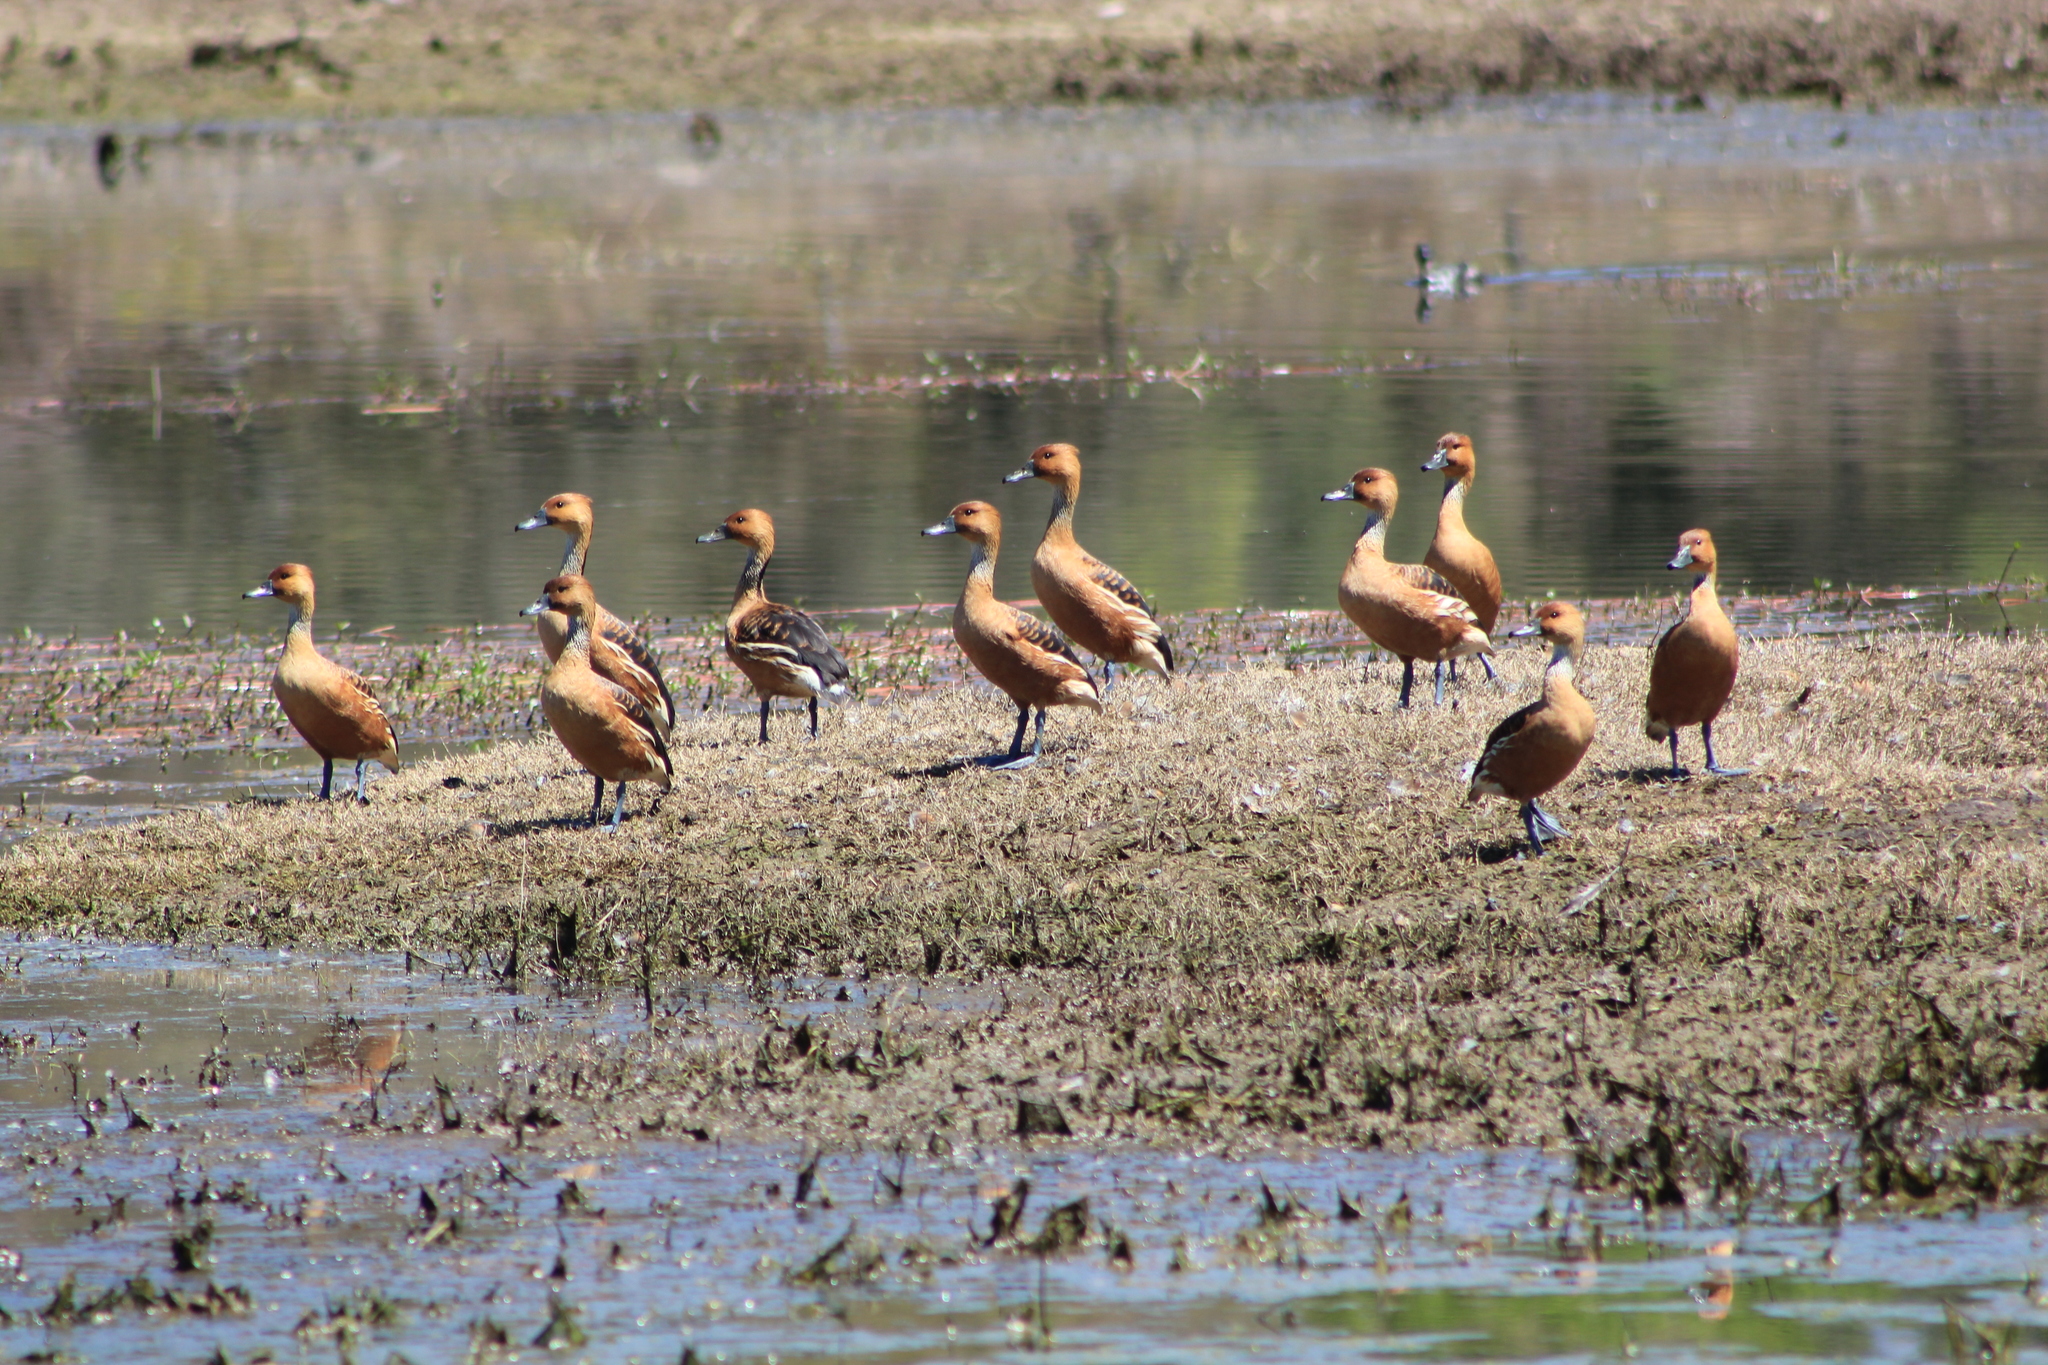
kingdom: Animalia
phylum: Chordata
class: Aves
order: Anseriformes
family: Anatidae
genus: Dendrocygna
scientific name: Dendrocygna bicolor
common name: Fulvous whistling duck
